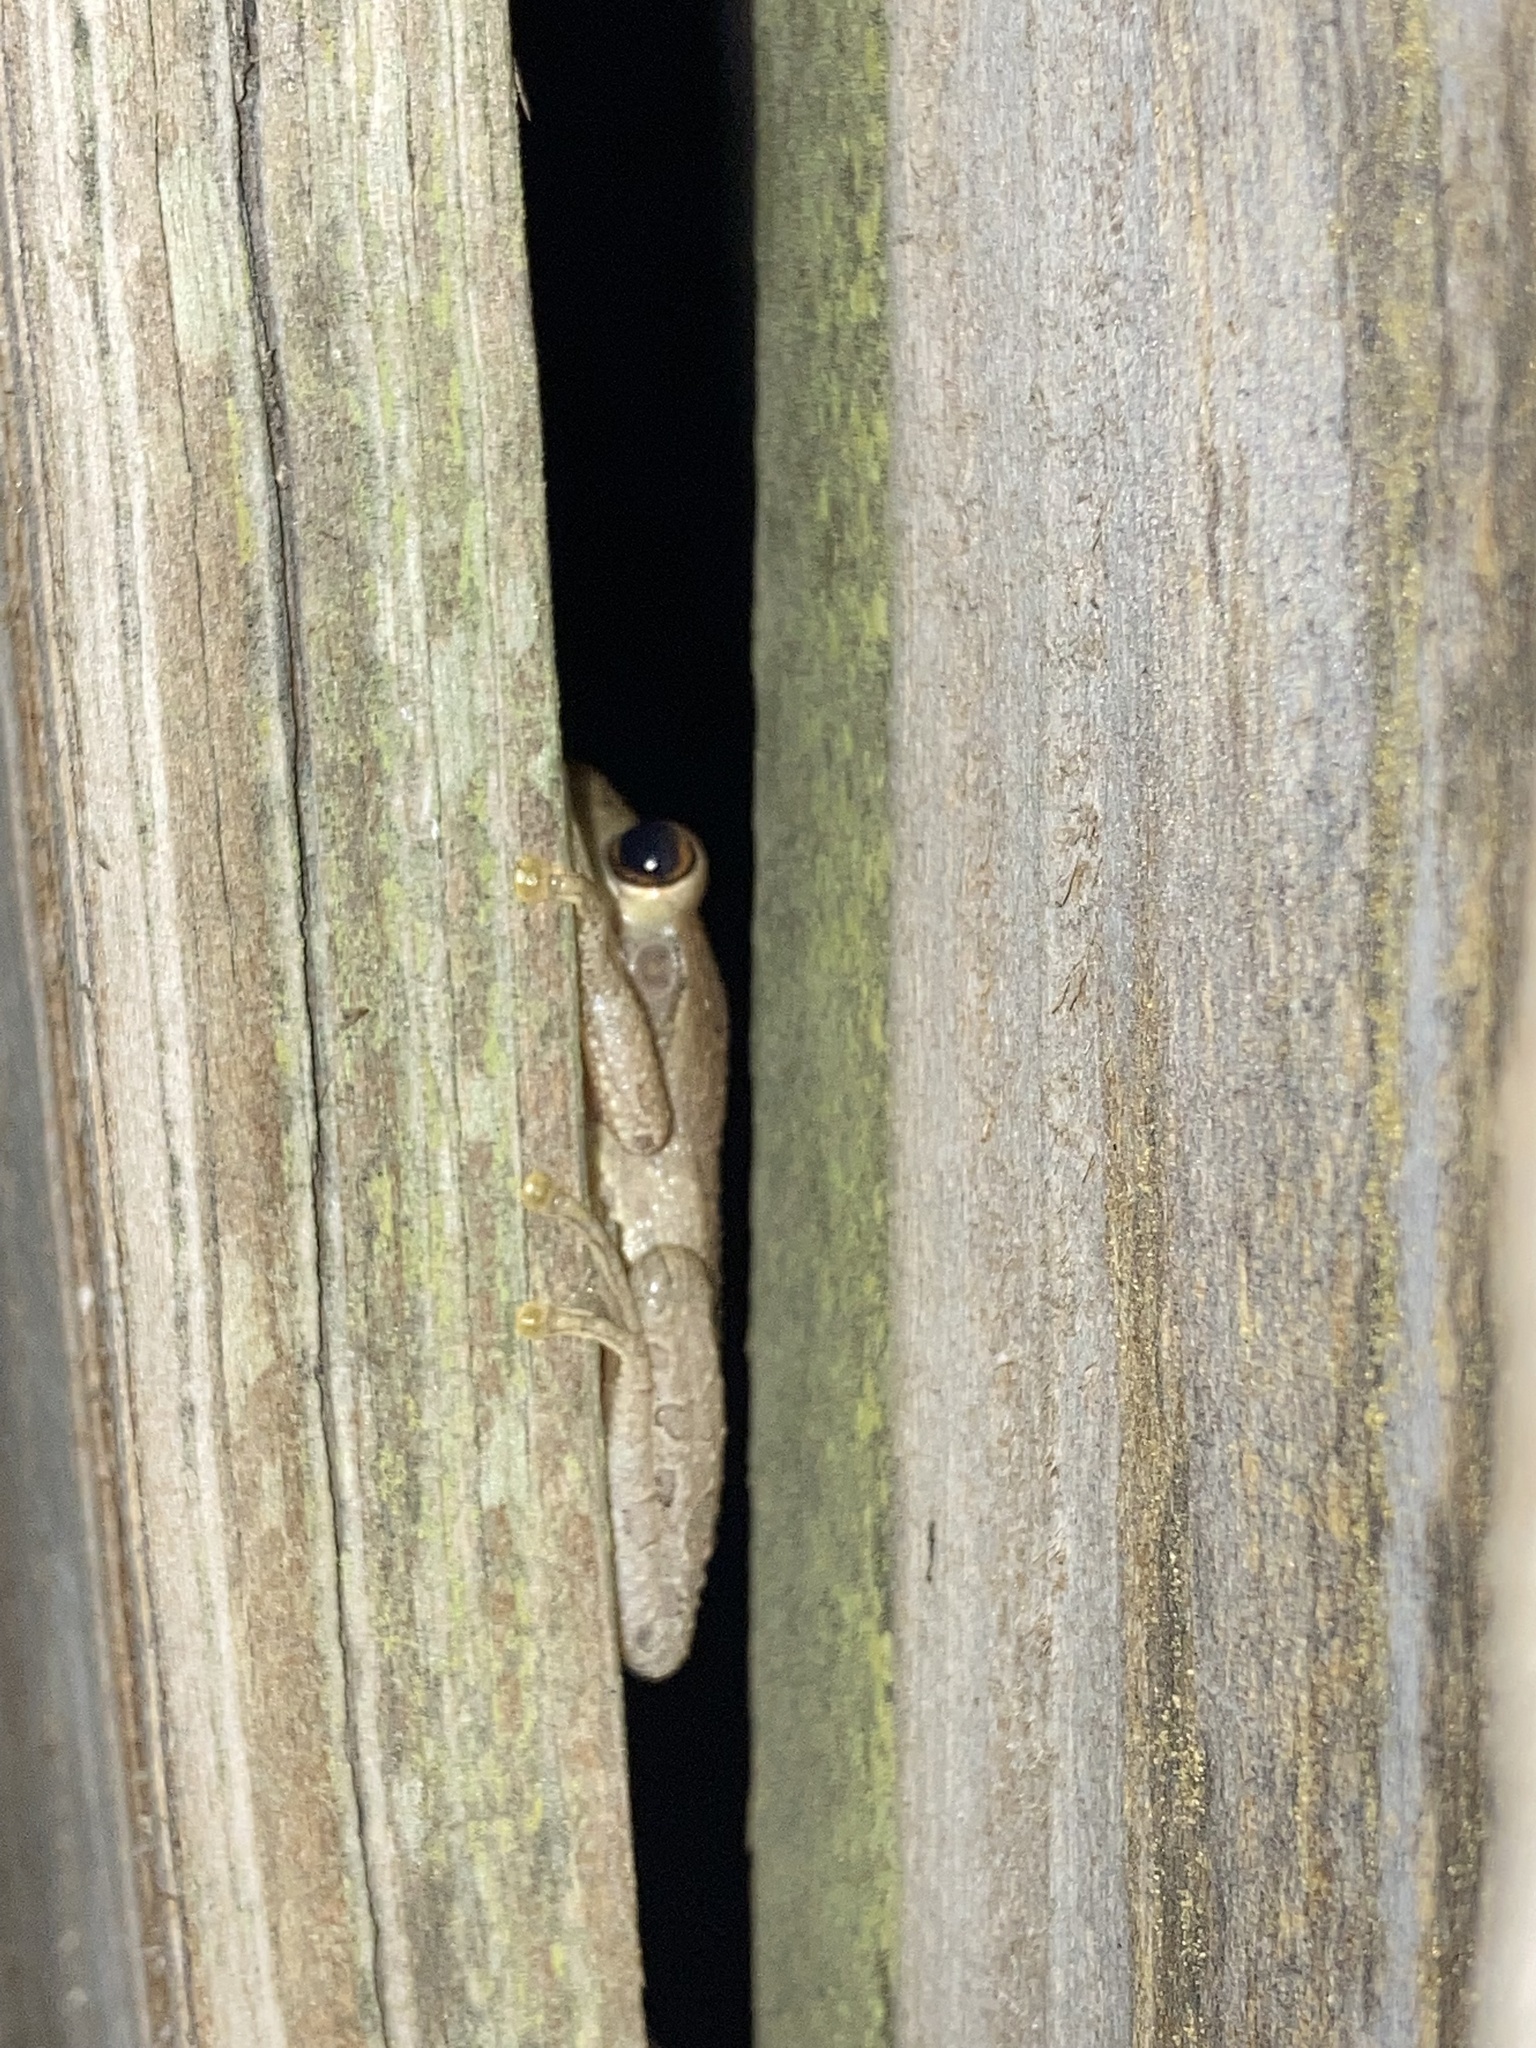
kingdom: Animalia
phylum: Chordata
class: Amphibia
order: Anura
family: Hylidae
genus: Osteopilus
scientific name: Osteopilus septentrionalis
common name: Cuban treefrog
